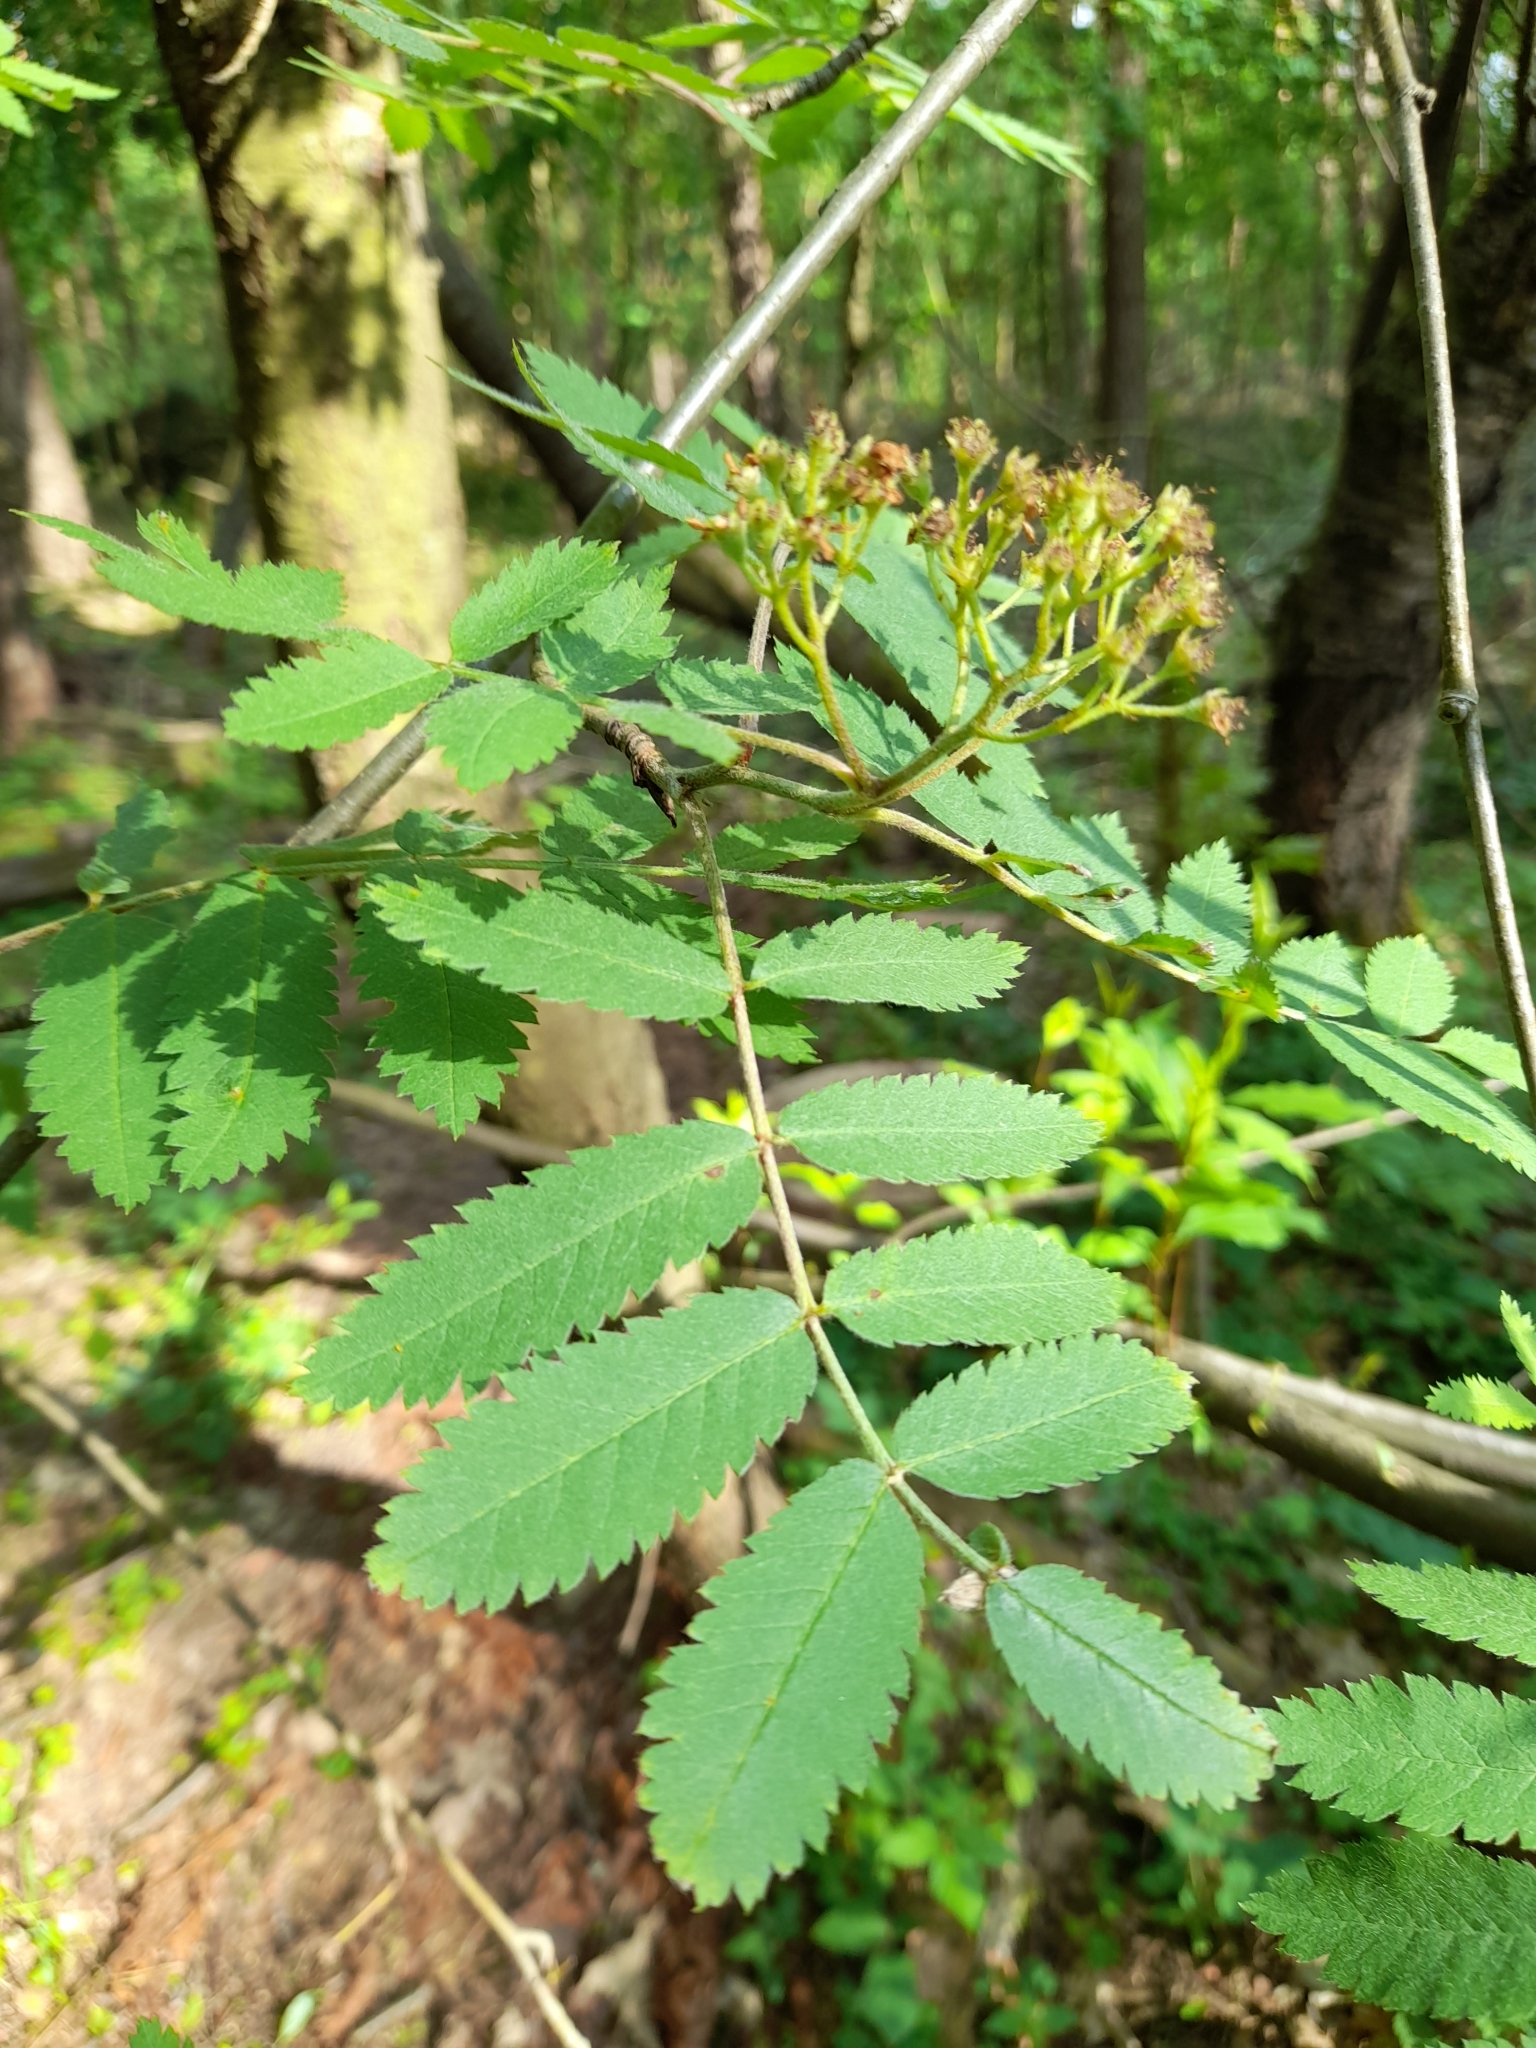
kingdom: Plantae
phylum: Tracheophyta
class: Magnoliopsida
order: Rosales
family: Rosaceae
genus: Sorbus
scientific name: Sorbus aucuparia
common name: Rowan
